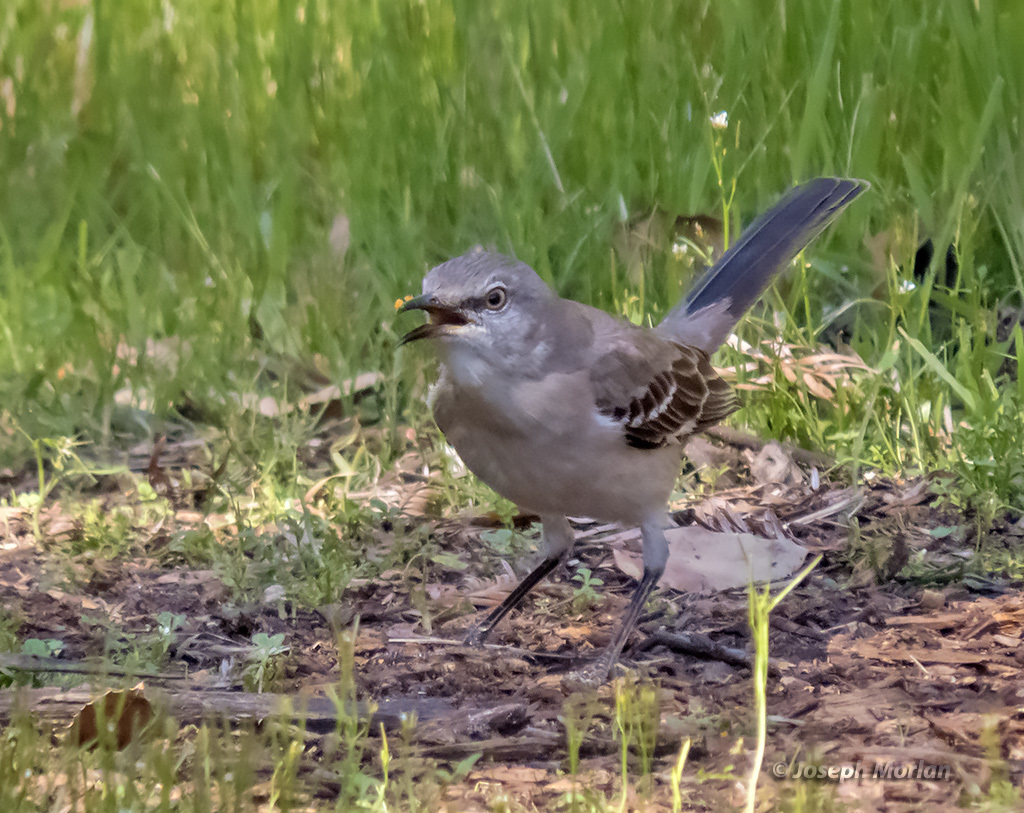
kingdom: Animalia
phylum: Chordata
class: Aves
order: Passeriformes
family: Mimidae
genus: Mimus
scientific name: Mimus polyglottos
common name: Northern mockingbird
